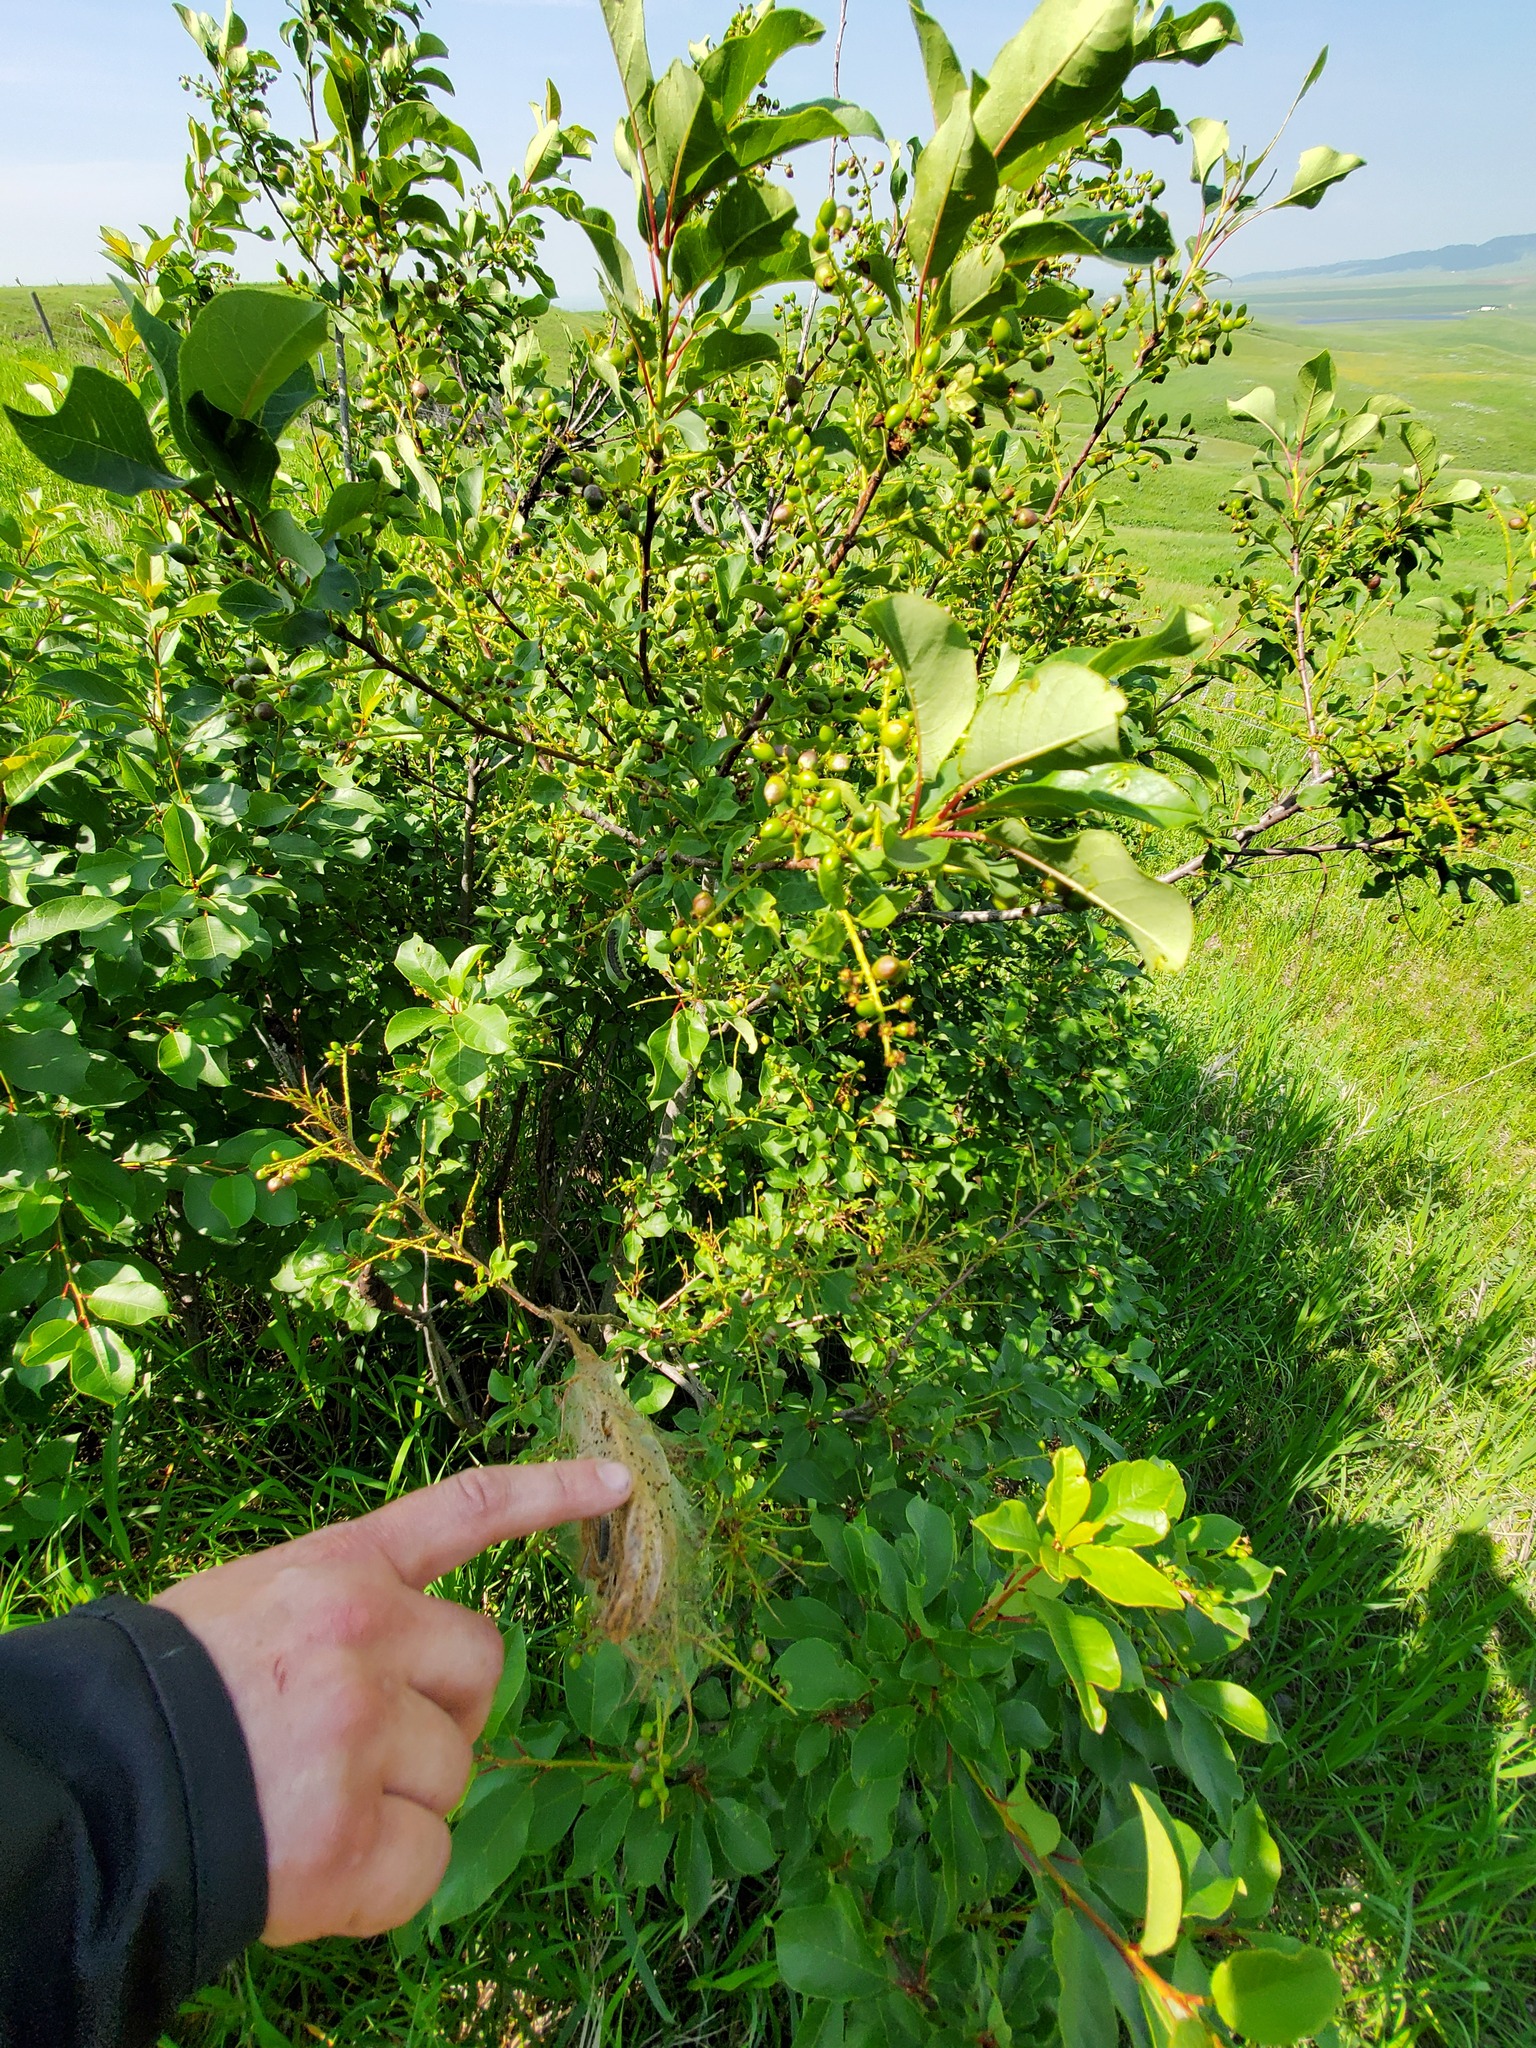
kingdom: Plantae
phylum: Tracheophyta
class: Magnoliopsida
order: Rosales
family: Rosaceae
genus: Prunus
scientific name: Prunus virginiana
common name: Chokecherry
